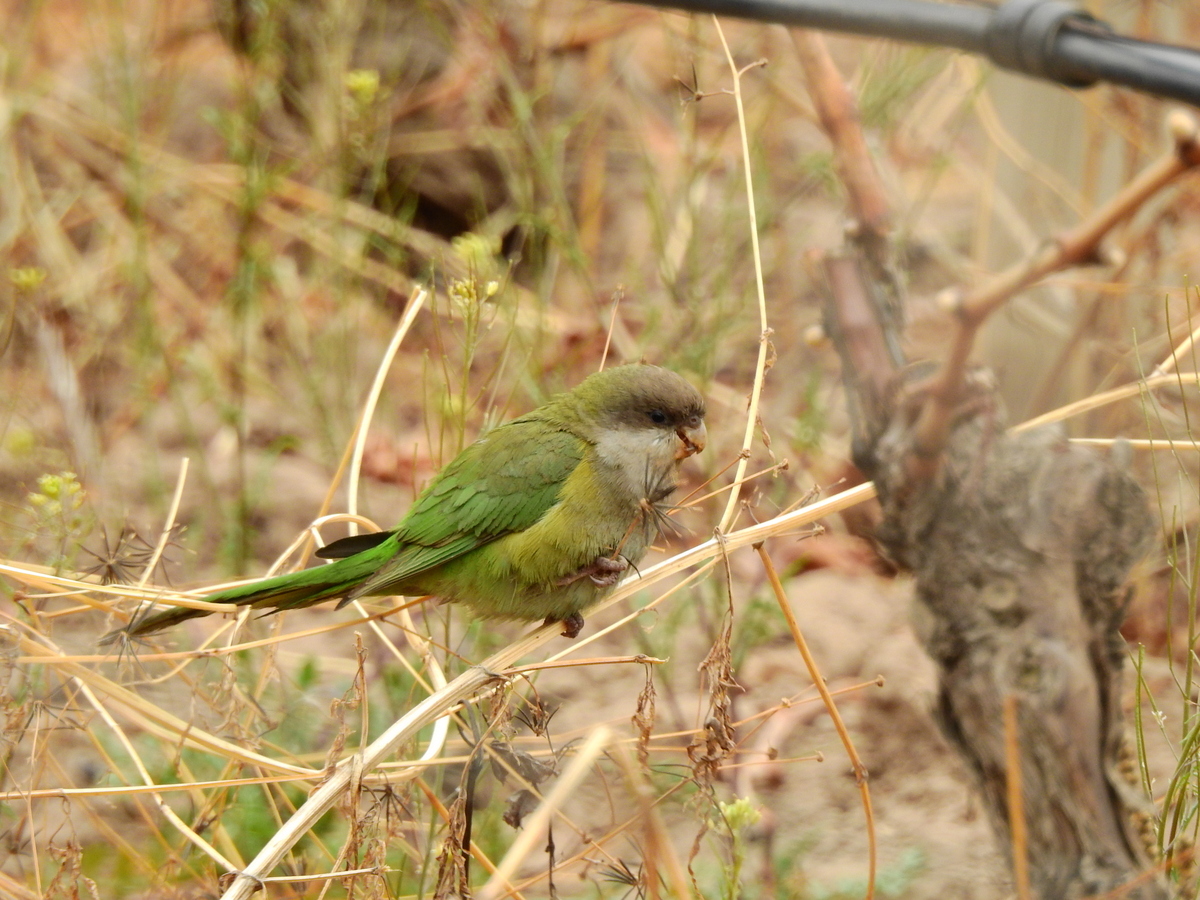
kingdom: Animalia
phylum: Chordata
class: Aves
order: Psittaciformes
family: Psittacidae
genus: Psilopsiagon
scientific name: Psilopsiagon aymara
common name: Grey-hooded parakeet
